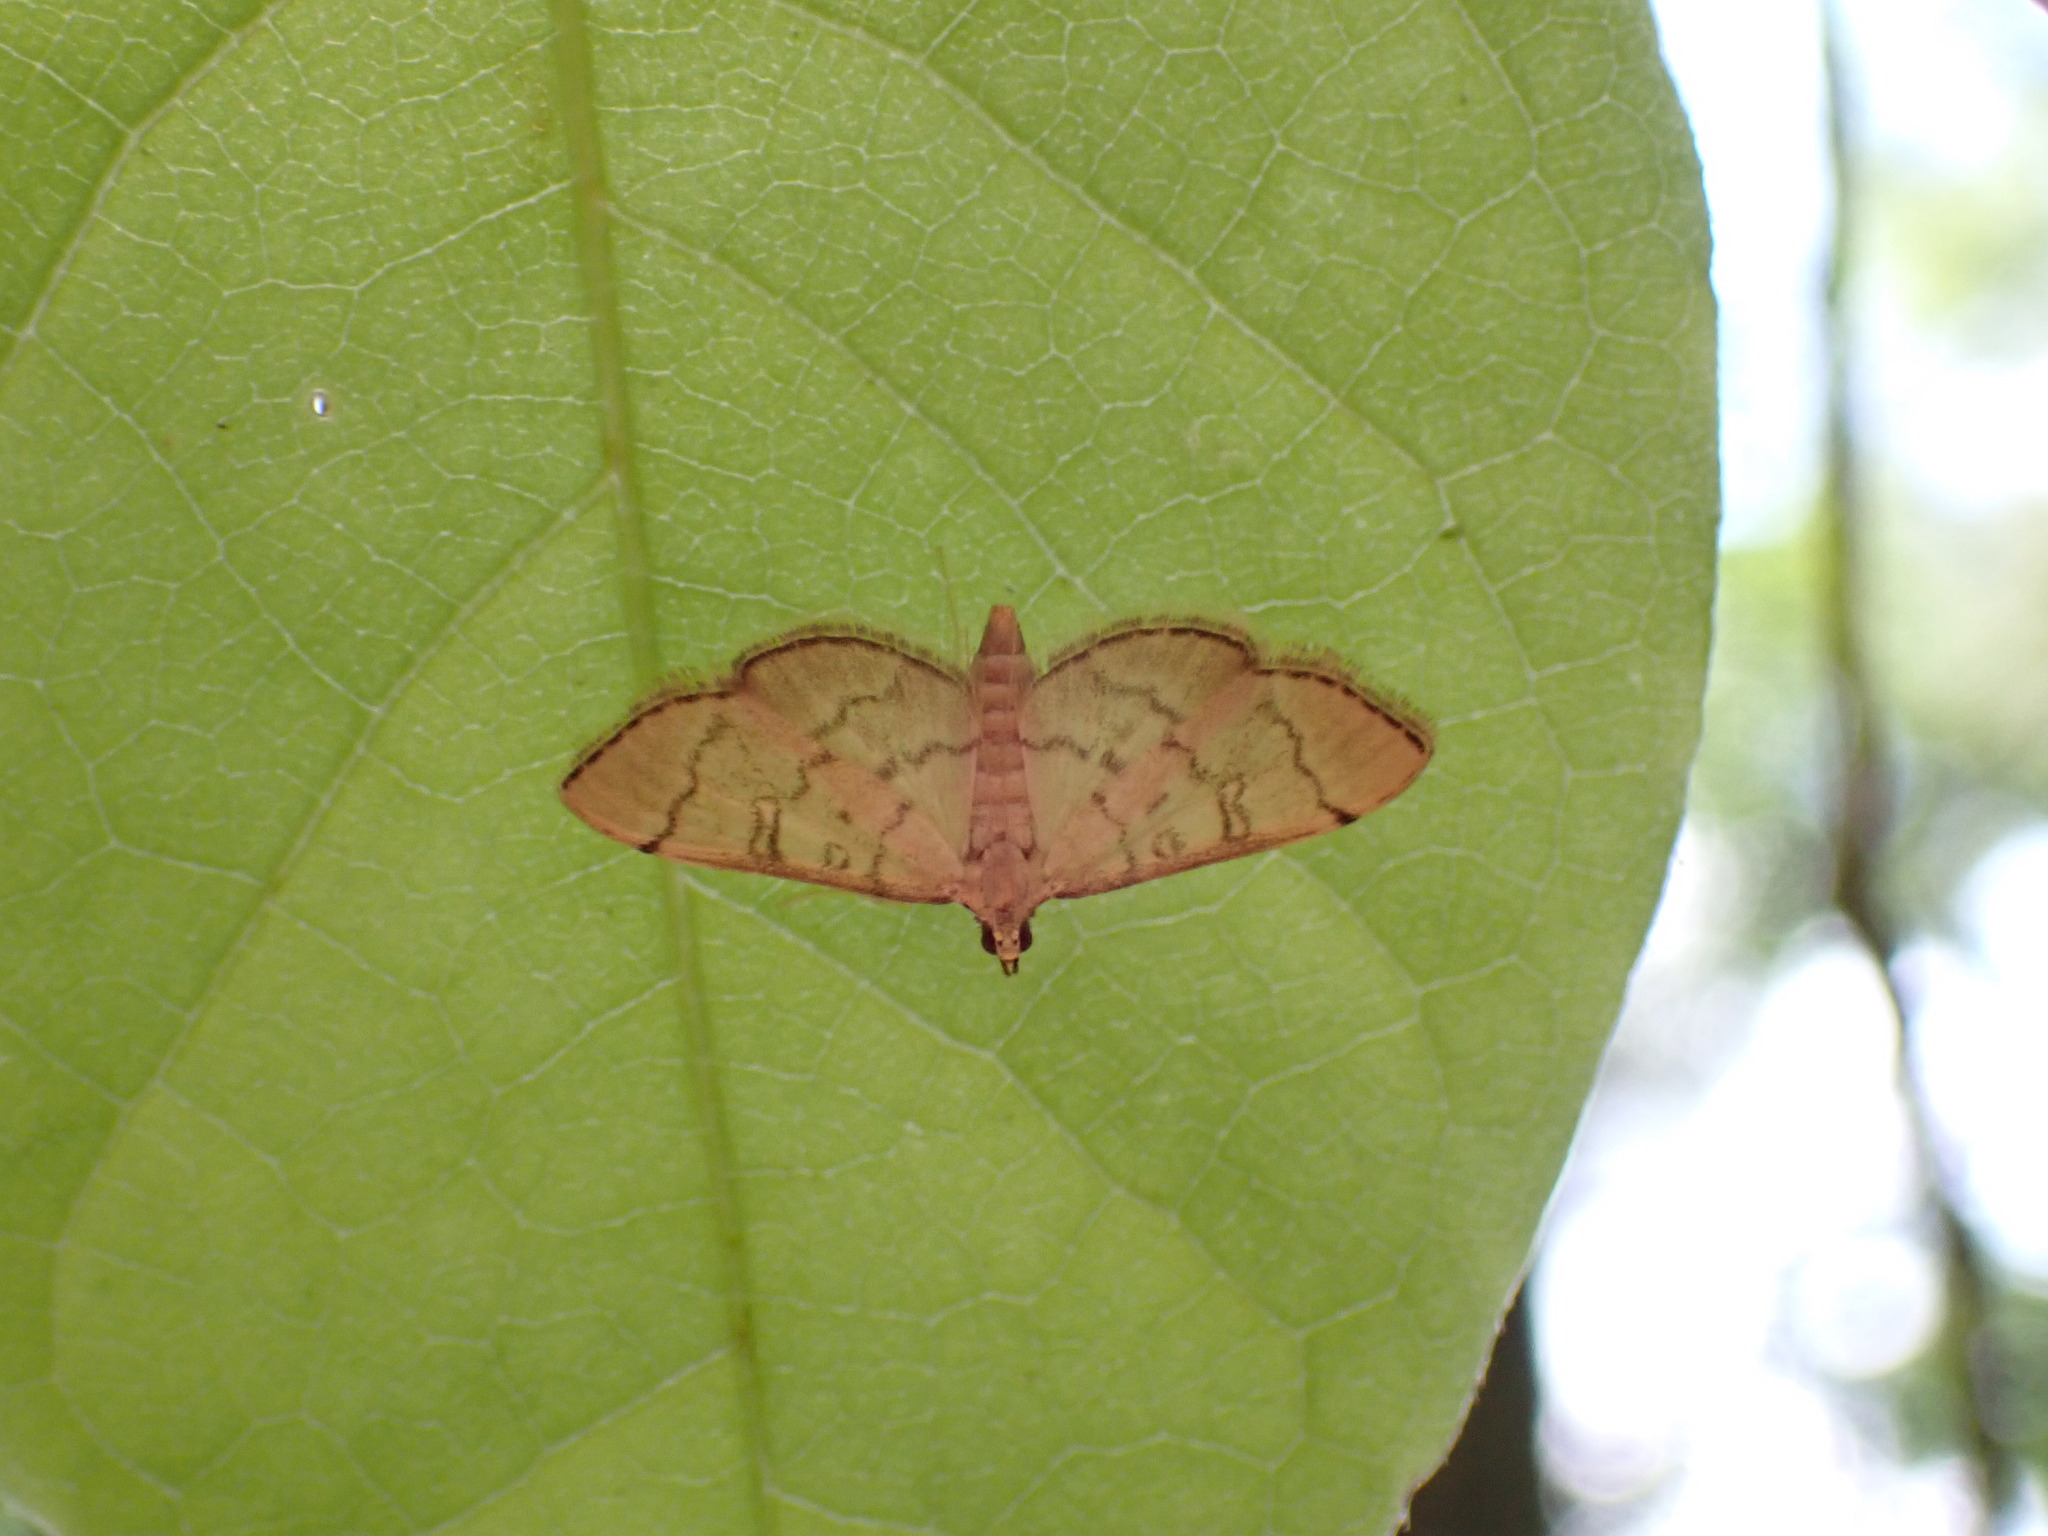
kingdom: Animalia
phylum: Arthropoda
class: Insecta
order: Lepidoptera
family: Crambidae
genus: Lamprosema
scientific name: Lamprosema Blepharomastix ranalis
